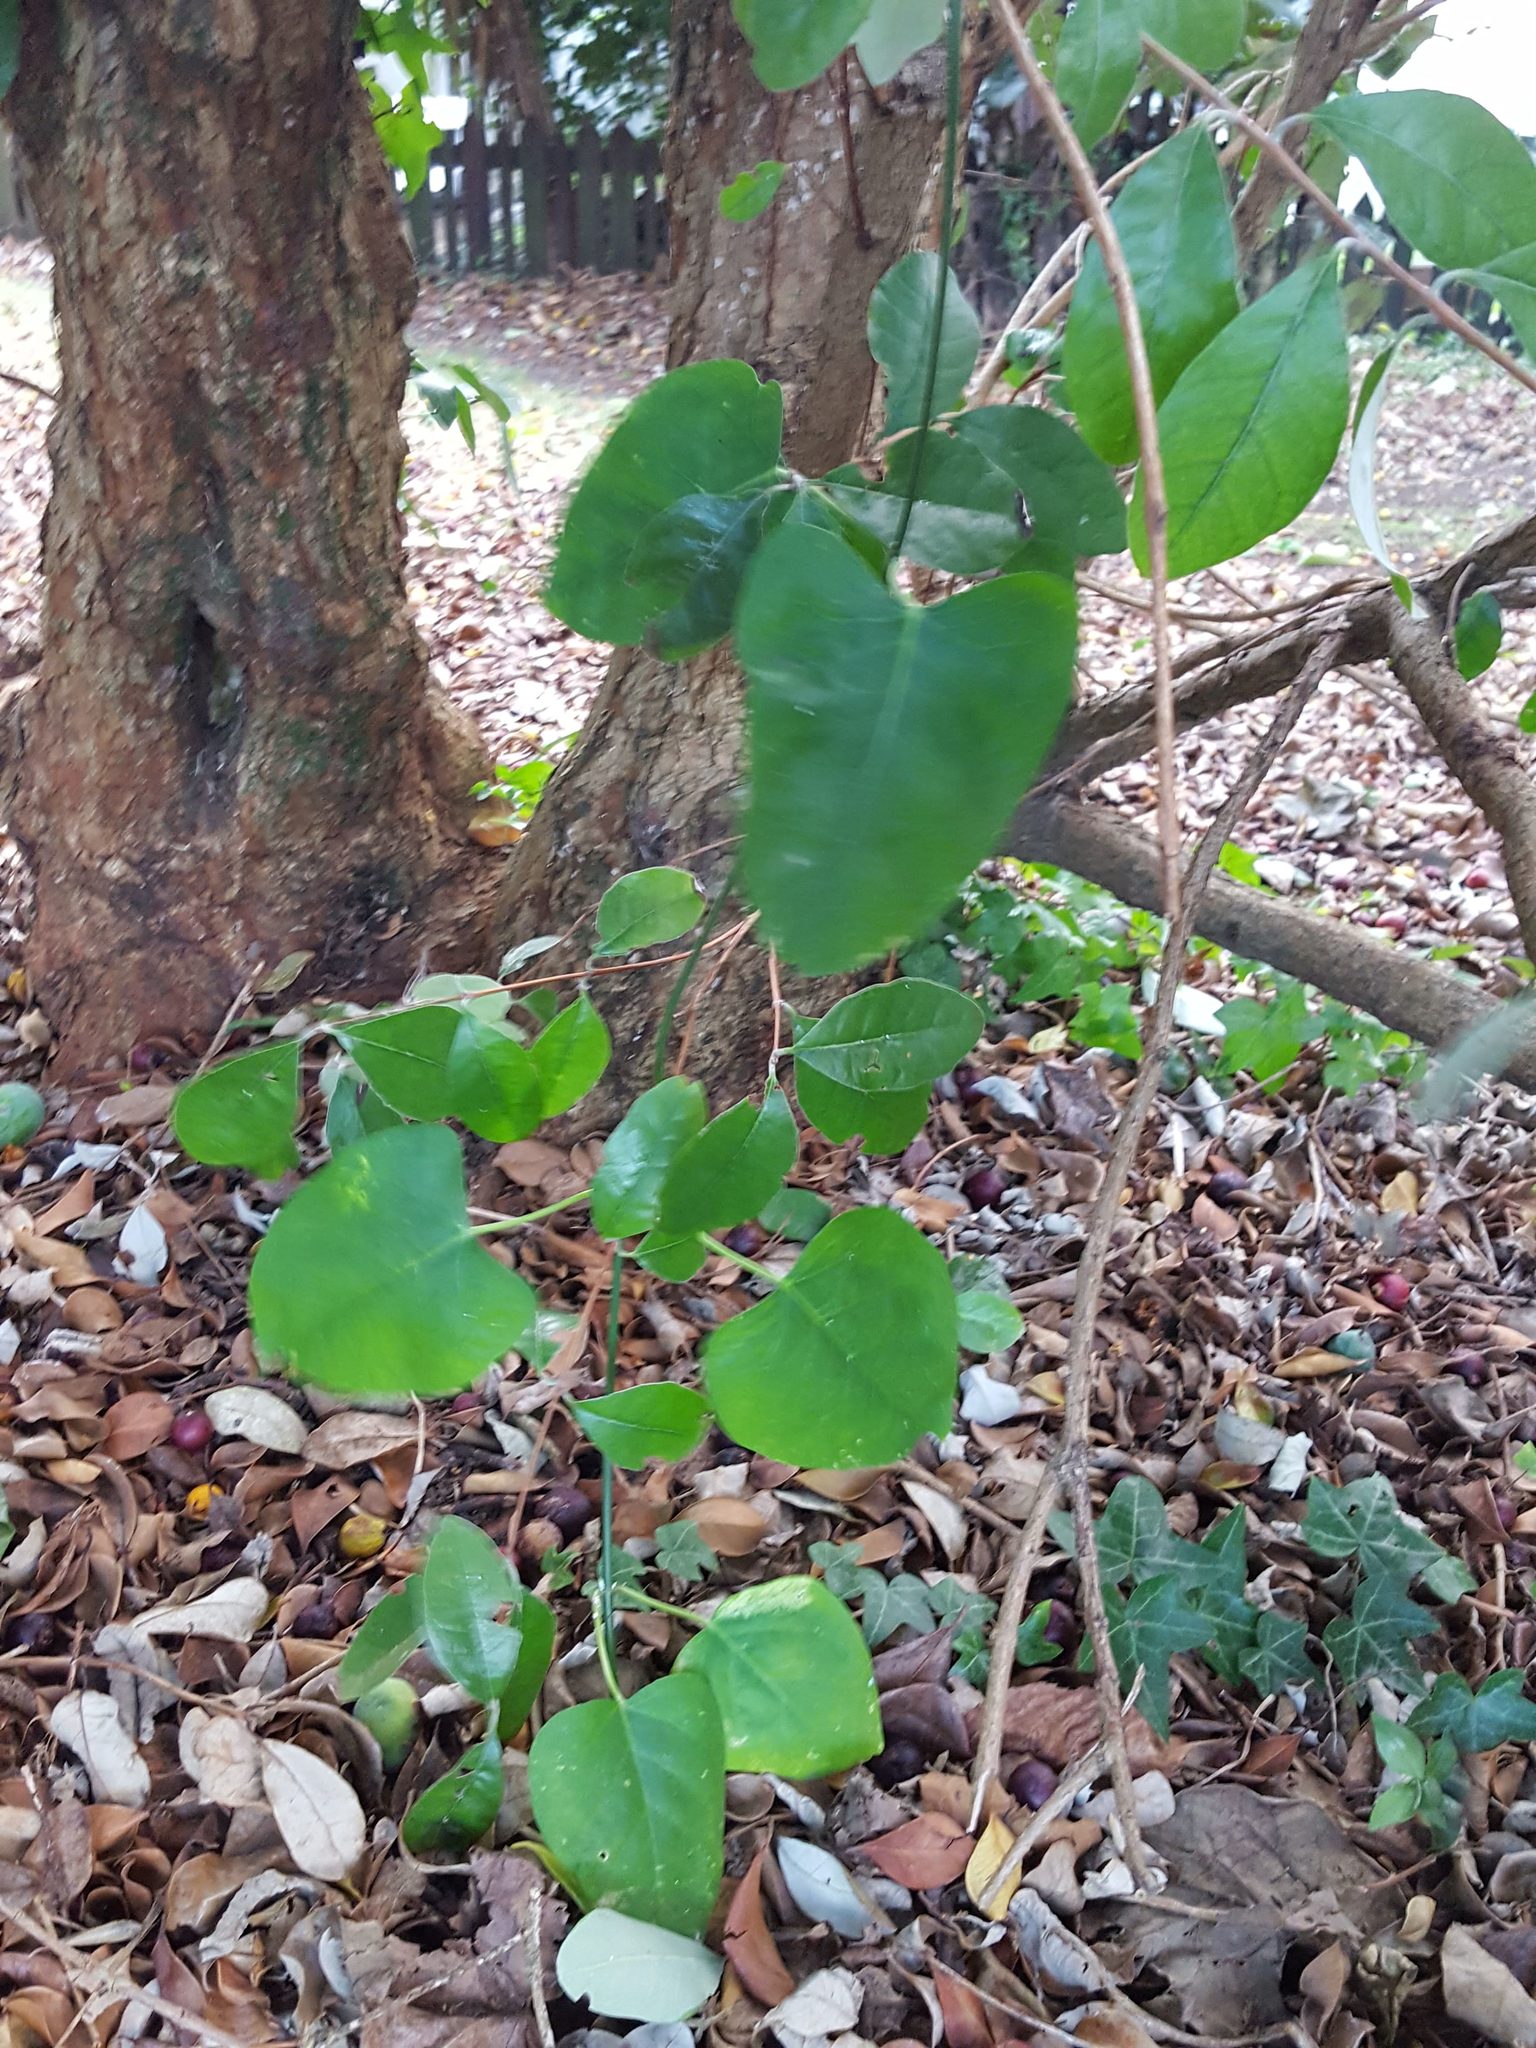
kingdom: Plantae
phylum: Tracheophyta
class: Magnoliopsida
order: Gentianales
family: Apocynaceae
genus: Araujia
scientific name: Araujia sericifera
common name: White bladderflower
